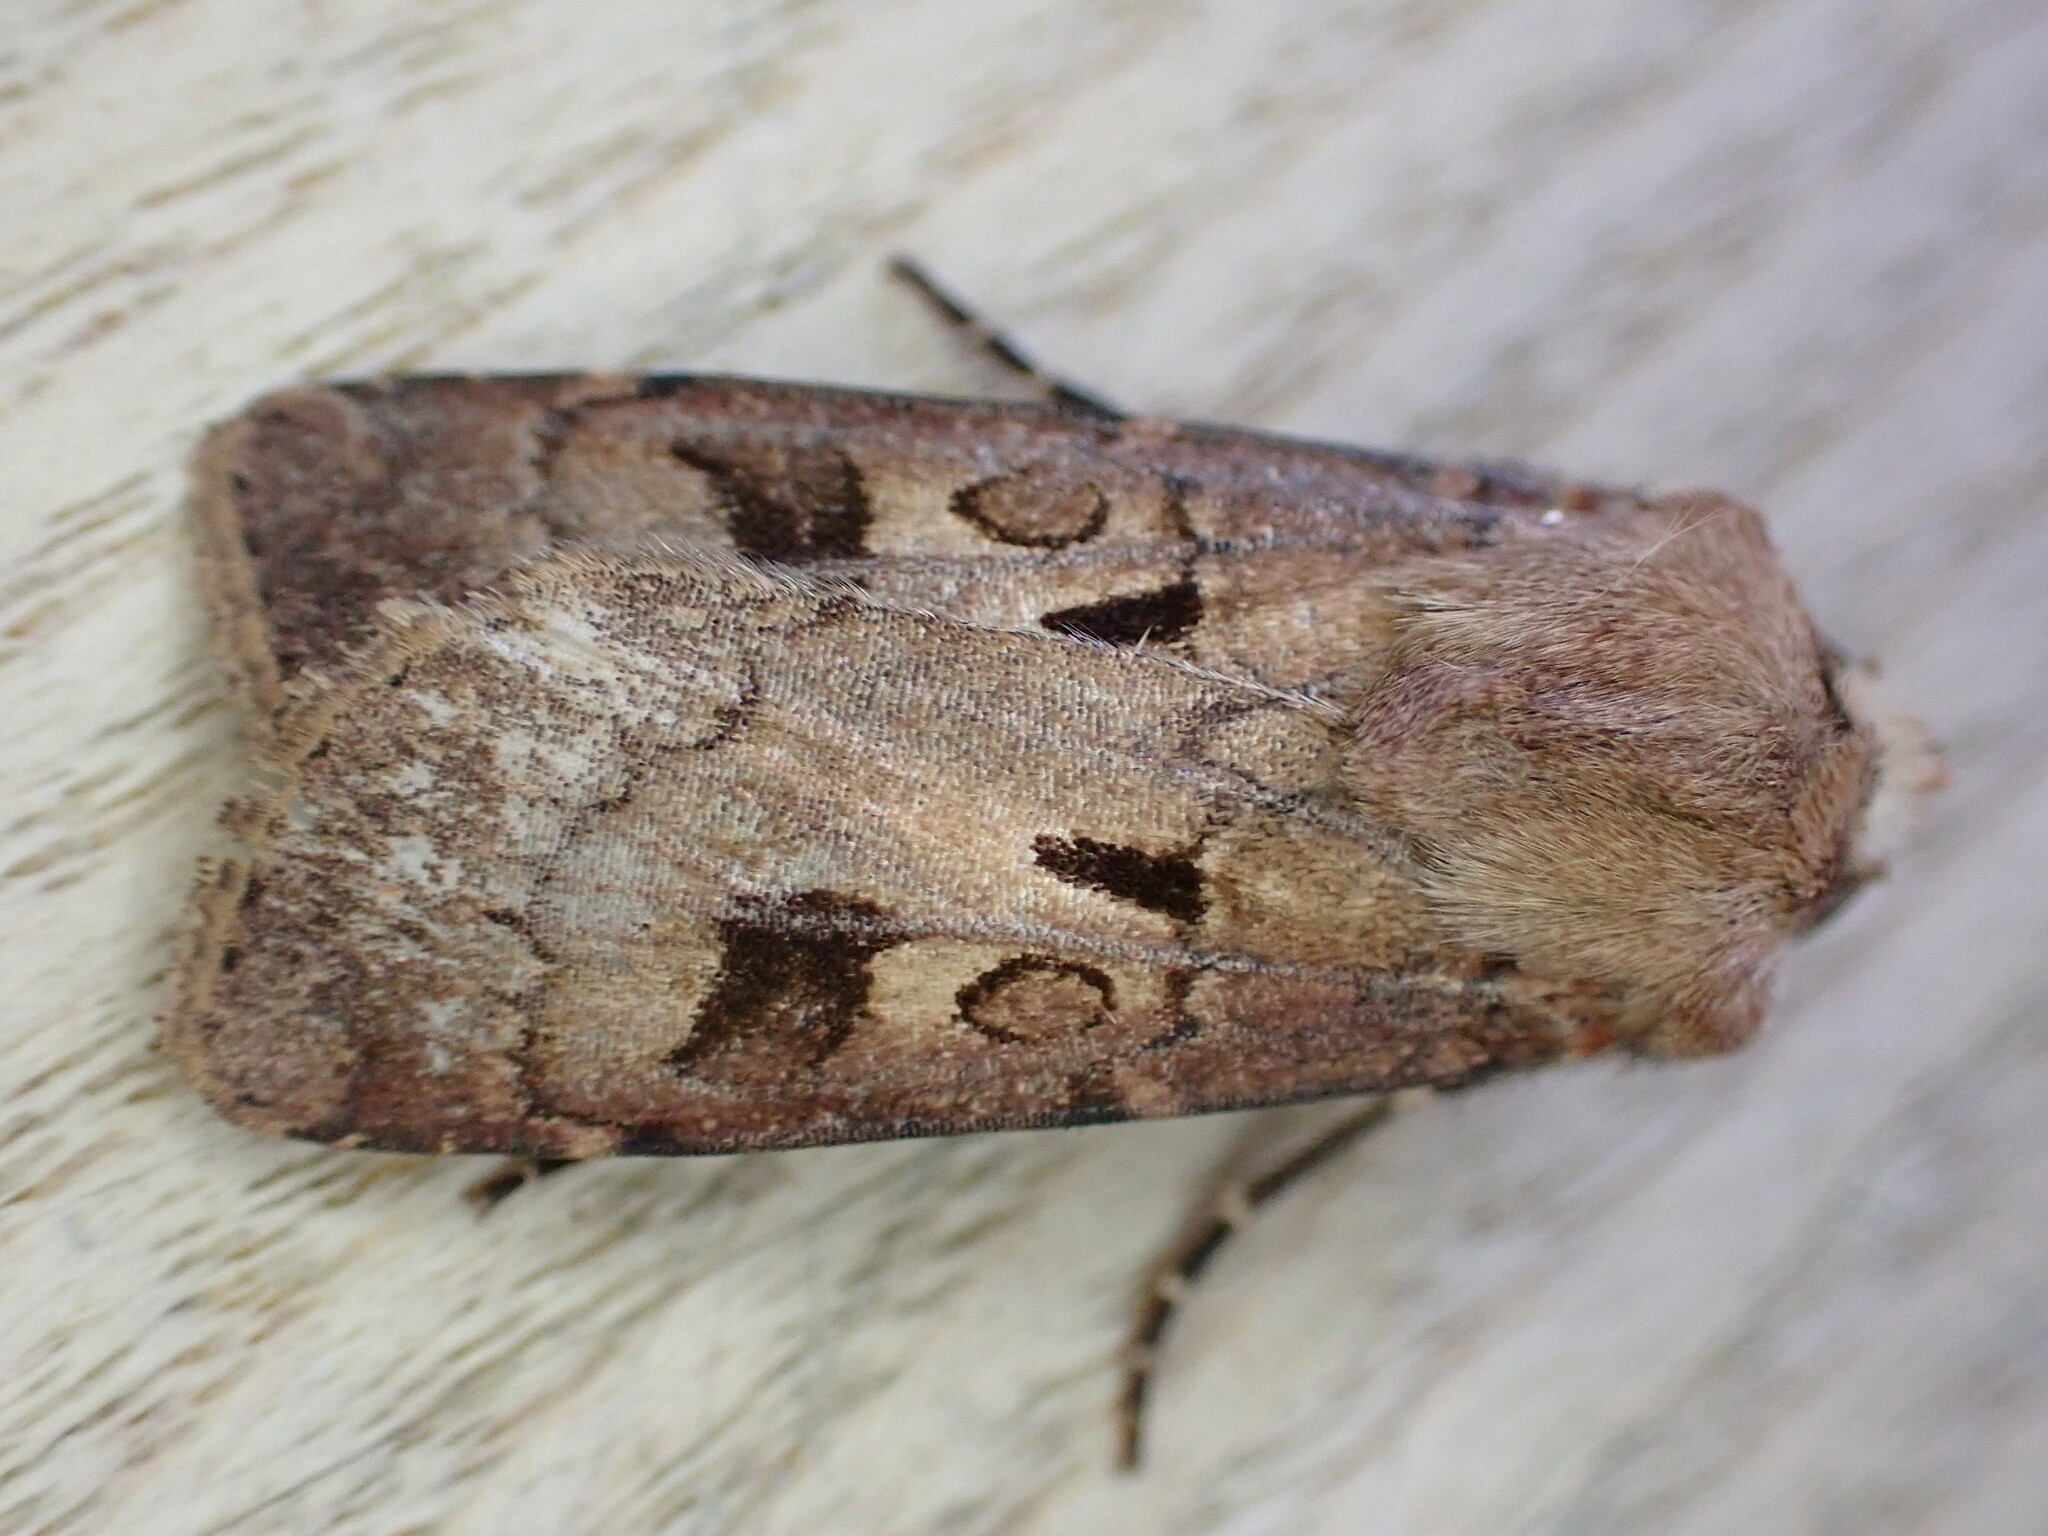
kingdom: Animalia
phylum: Arthropoda
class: Insecta
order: Lepidoptera
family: Noctuidae
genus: Agrotis
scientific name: Agrotis exclamationis
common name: Heart and dart
